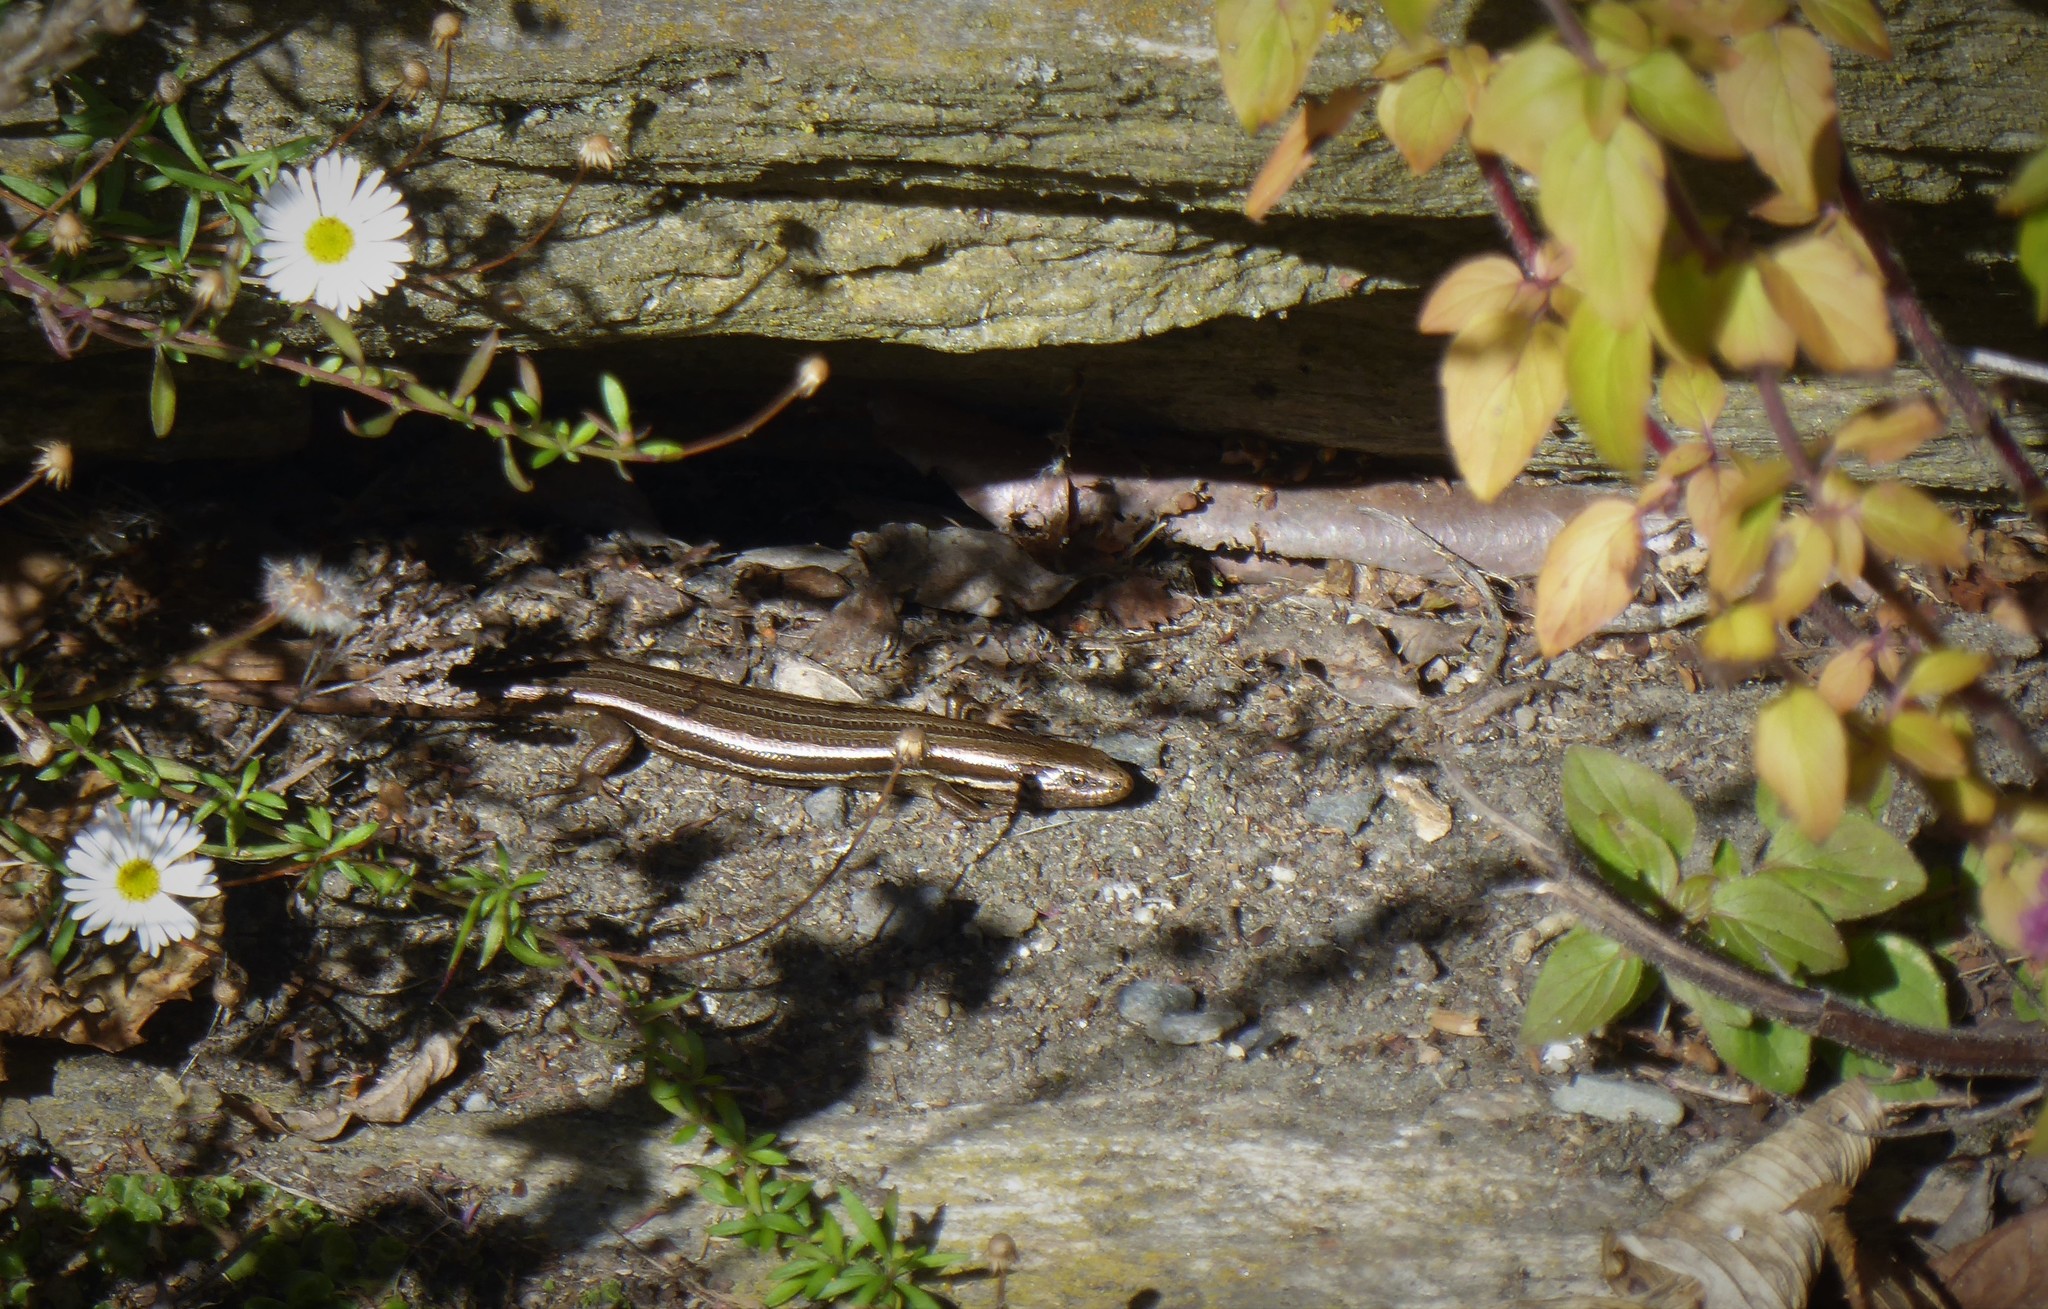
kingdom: Animalia
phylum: Chordata
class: Squamata
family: Scincidae
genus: Oligosoma
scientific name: Oligosoma polychroma
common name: Common new zealand skink
